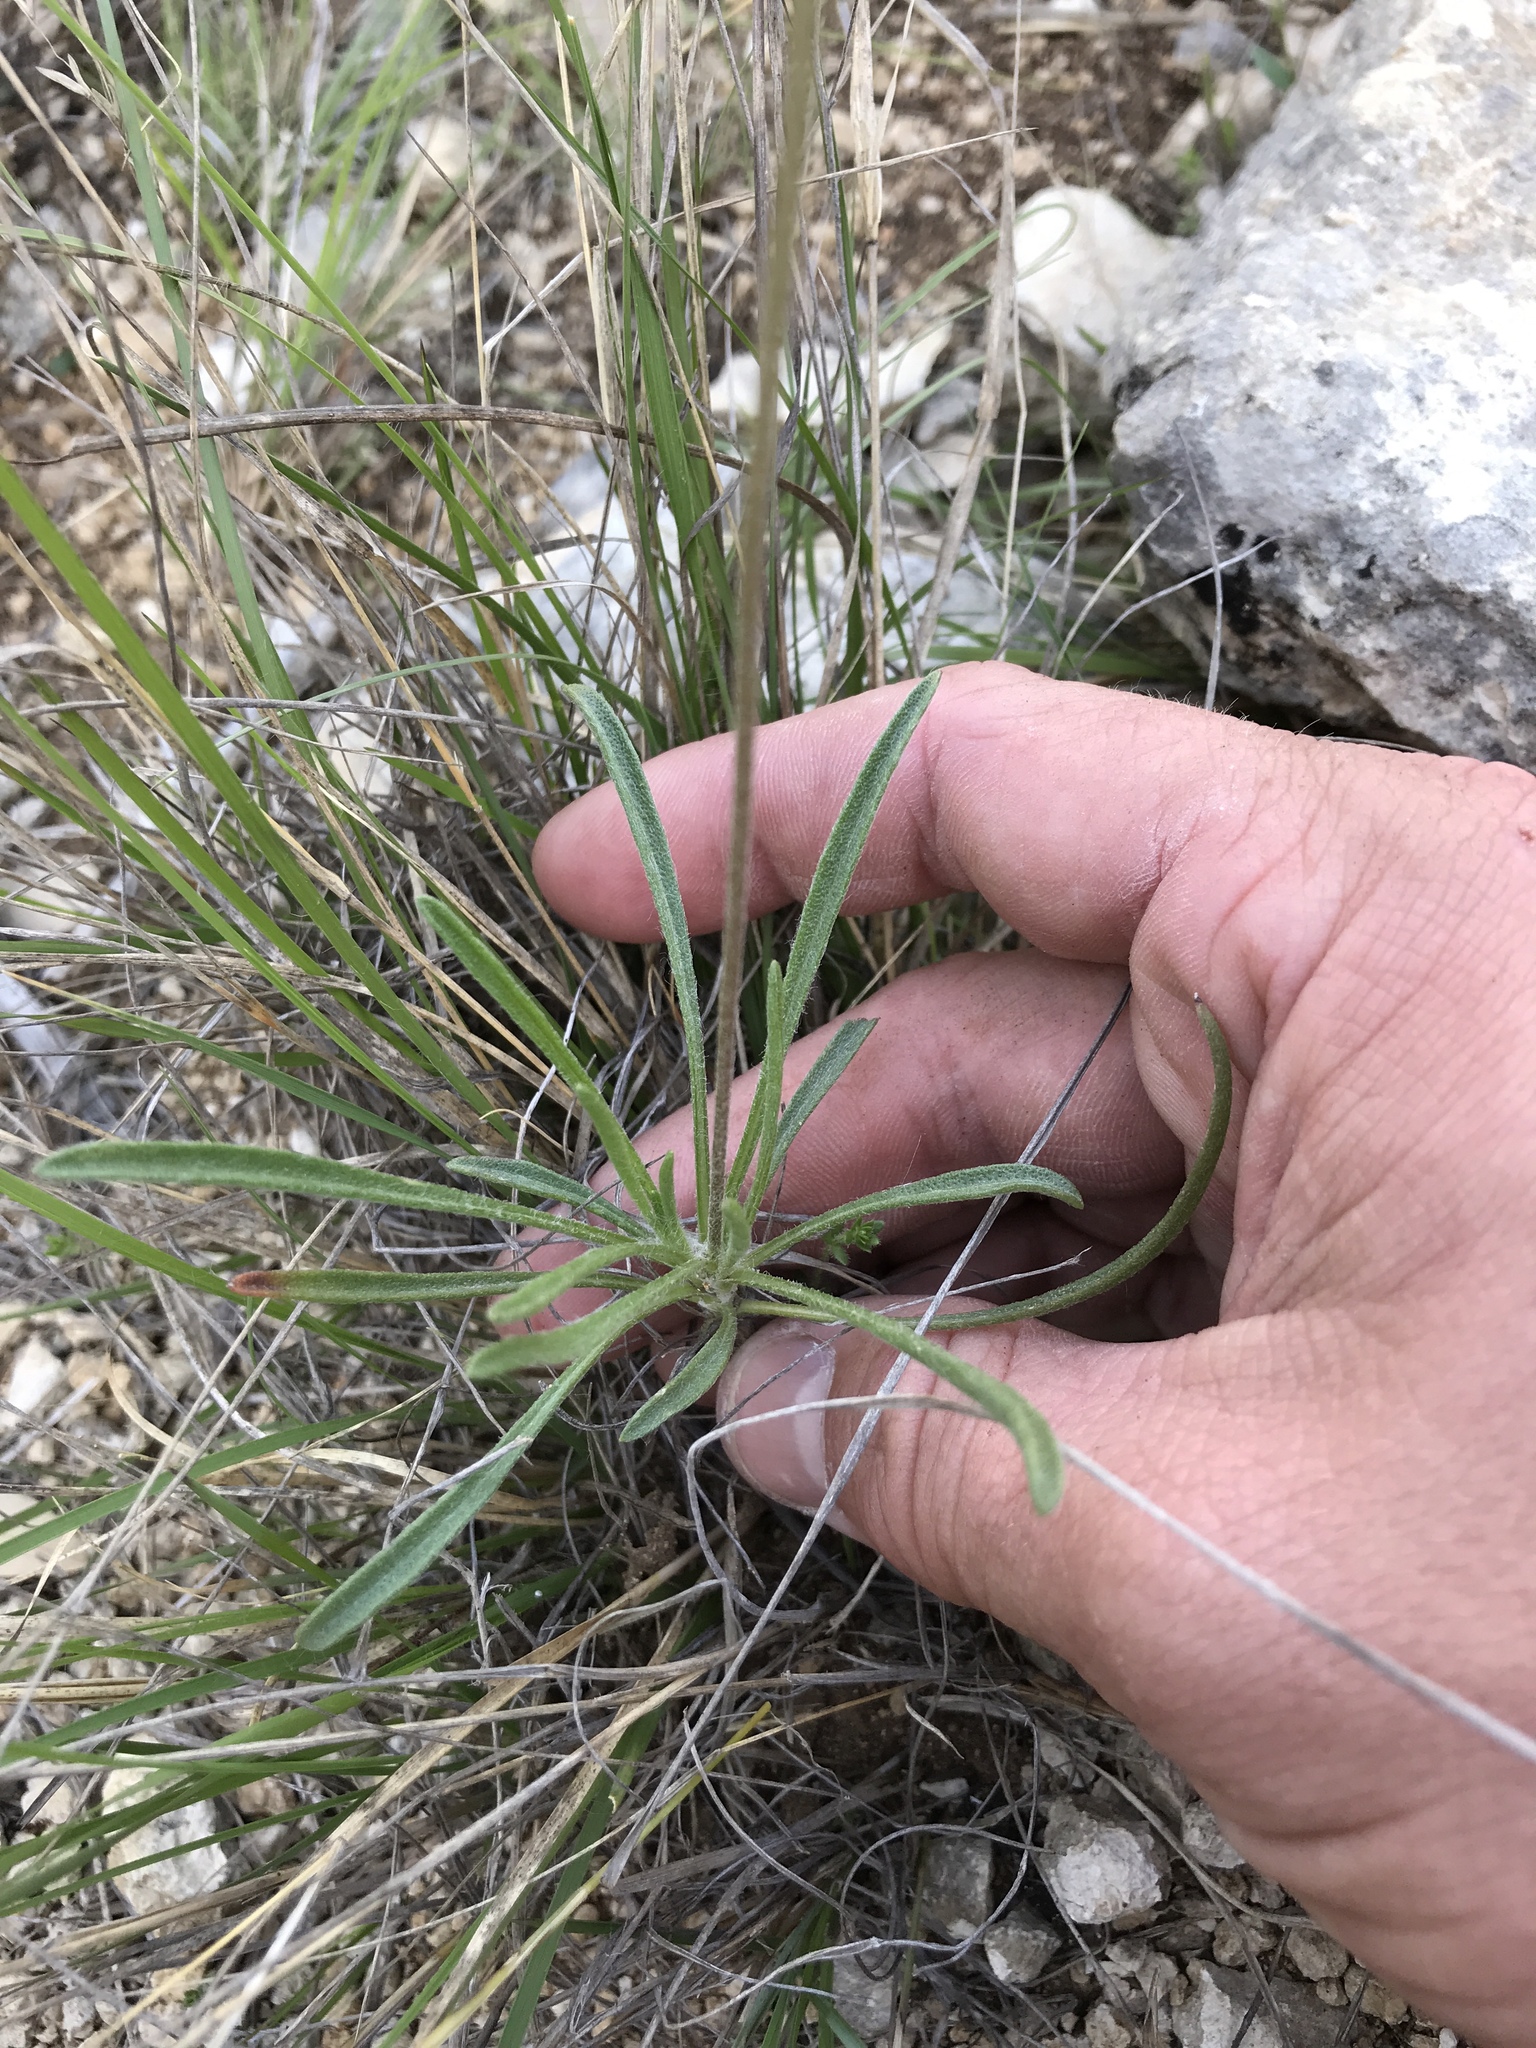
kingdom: Plantae
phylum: Tracheophyta
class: Magnoliopsida
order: Asterales
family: Asteraceae
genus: Tetraneuris
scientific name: Tetraneuris scaposa
